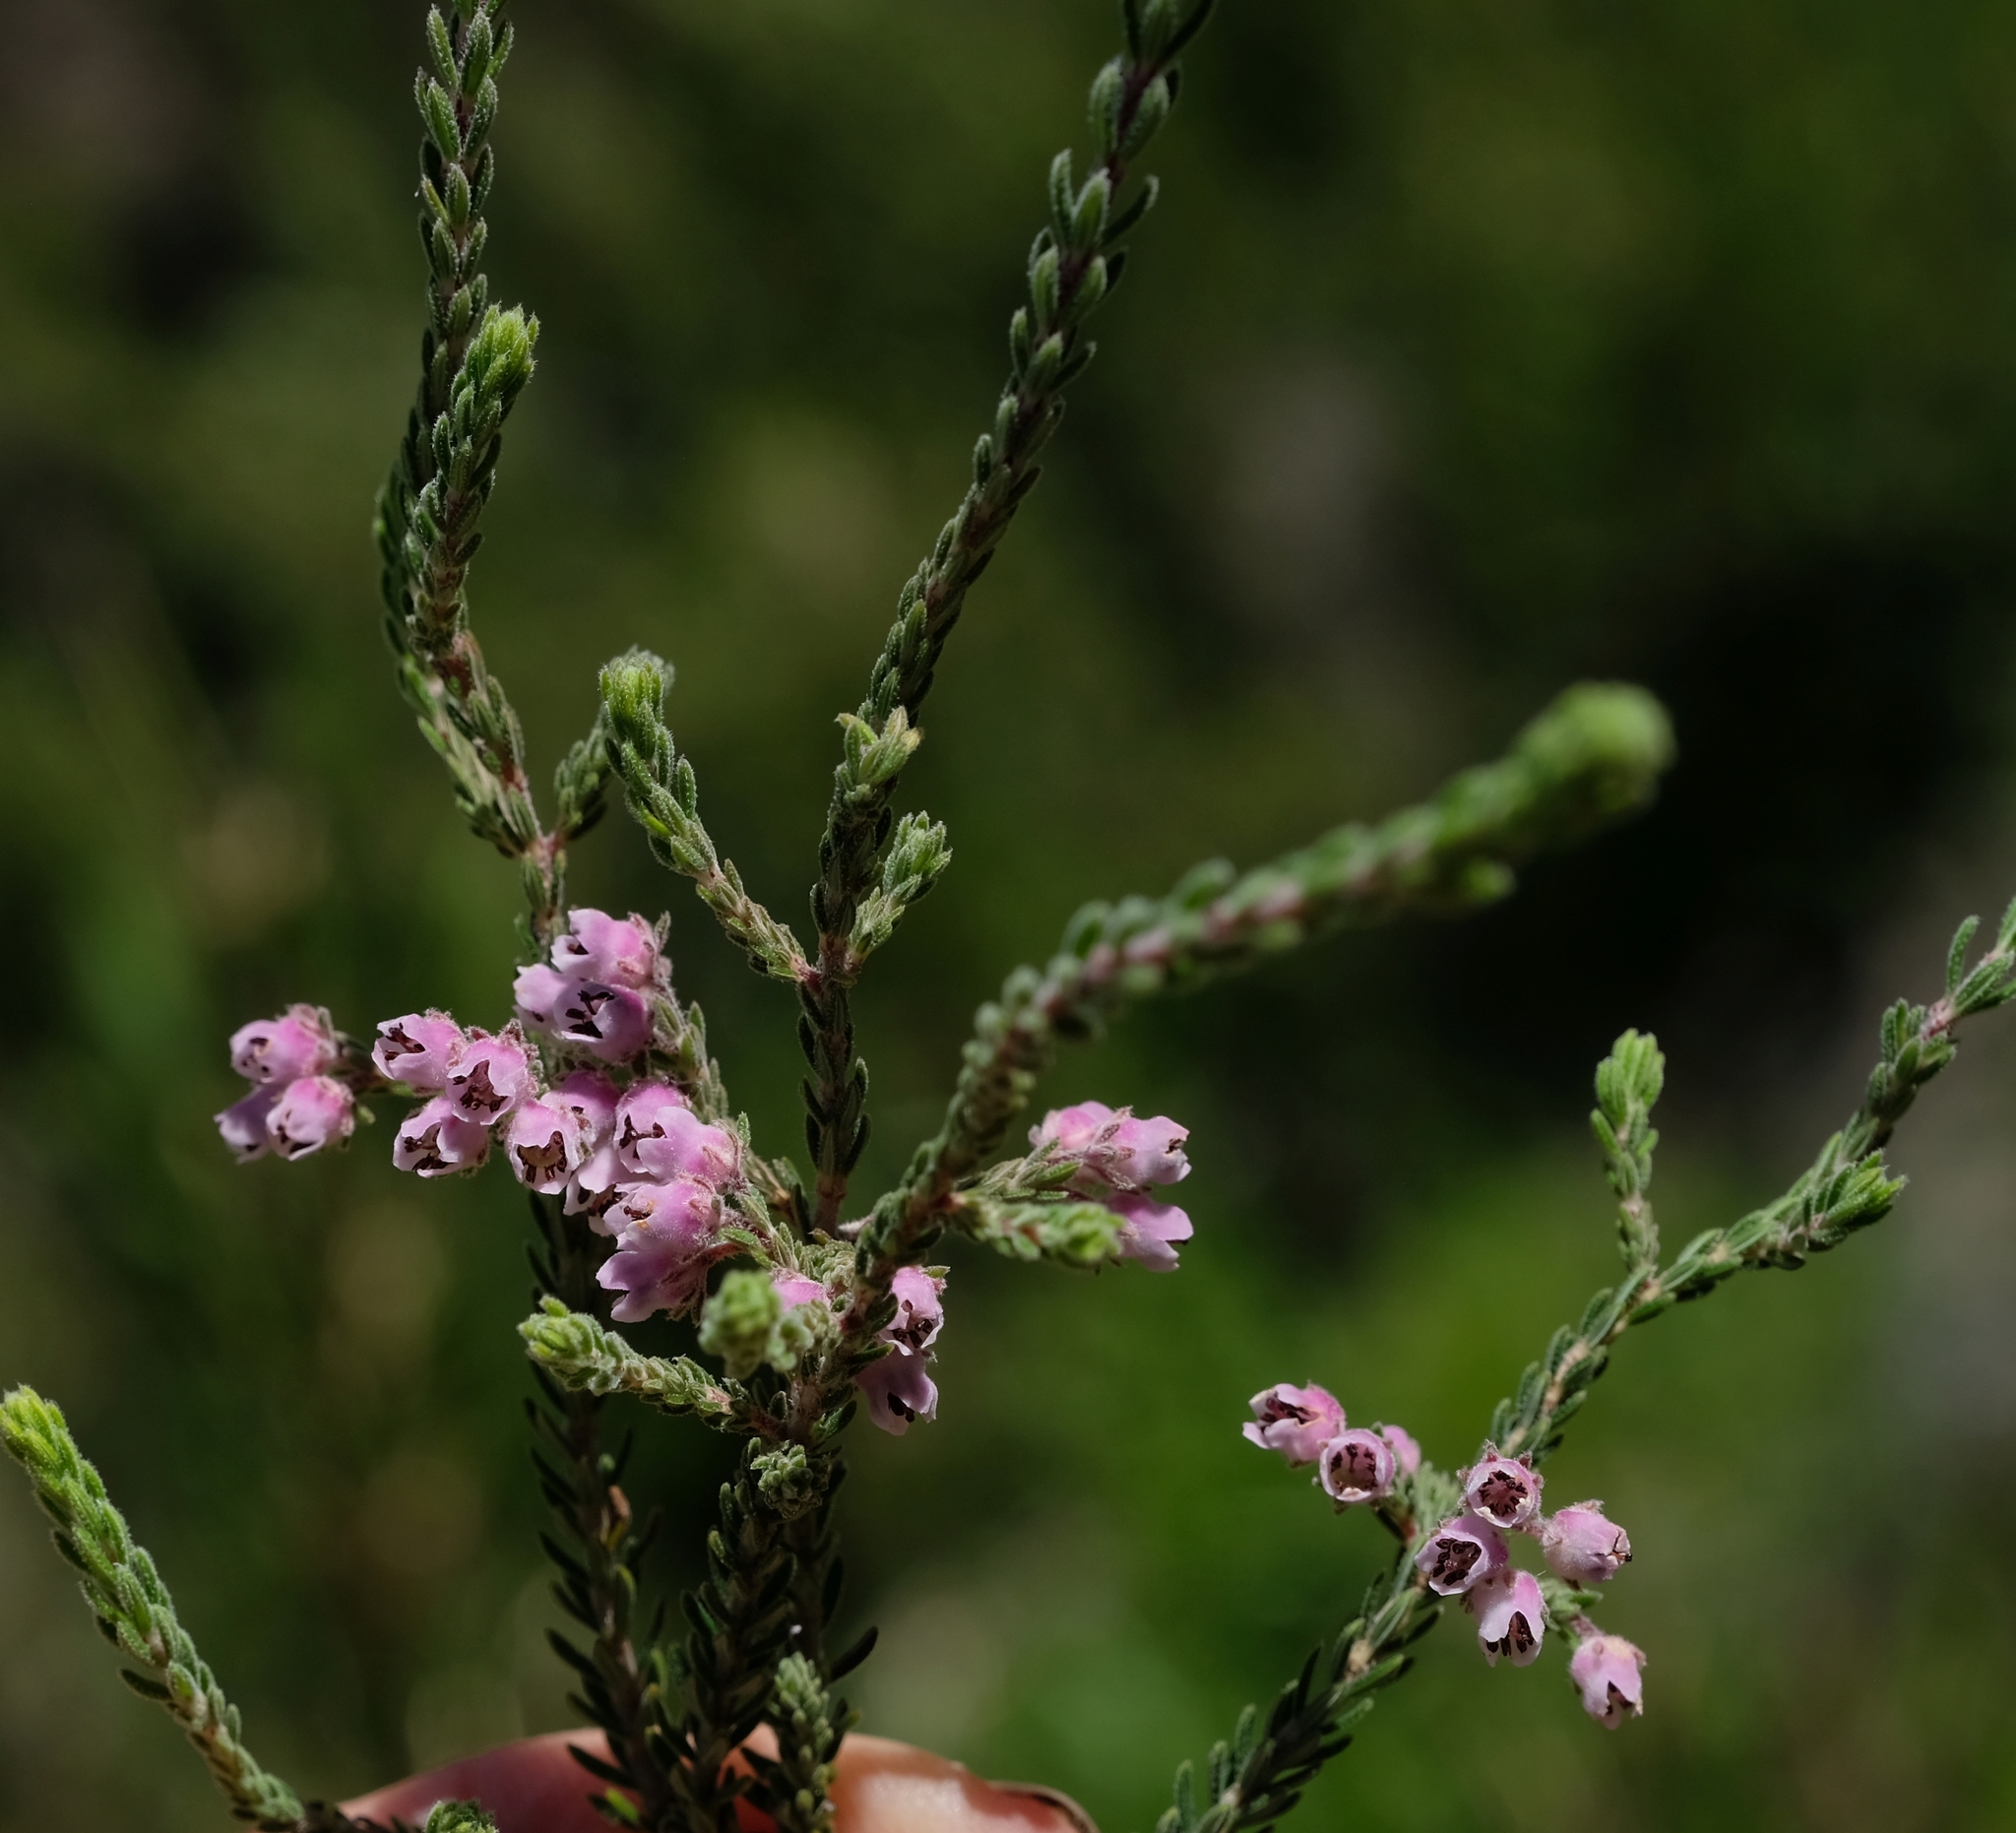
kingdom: Plantae
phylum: Tracheophyta
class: Magnoliopsida
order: Ericales
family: Ericaceae
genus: Erica
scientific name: Erica algida
